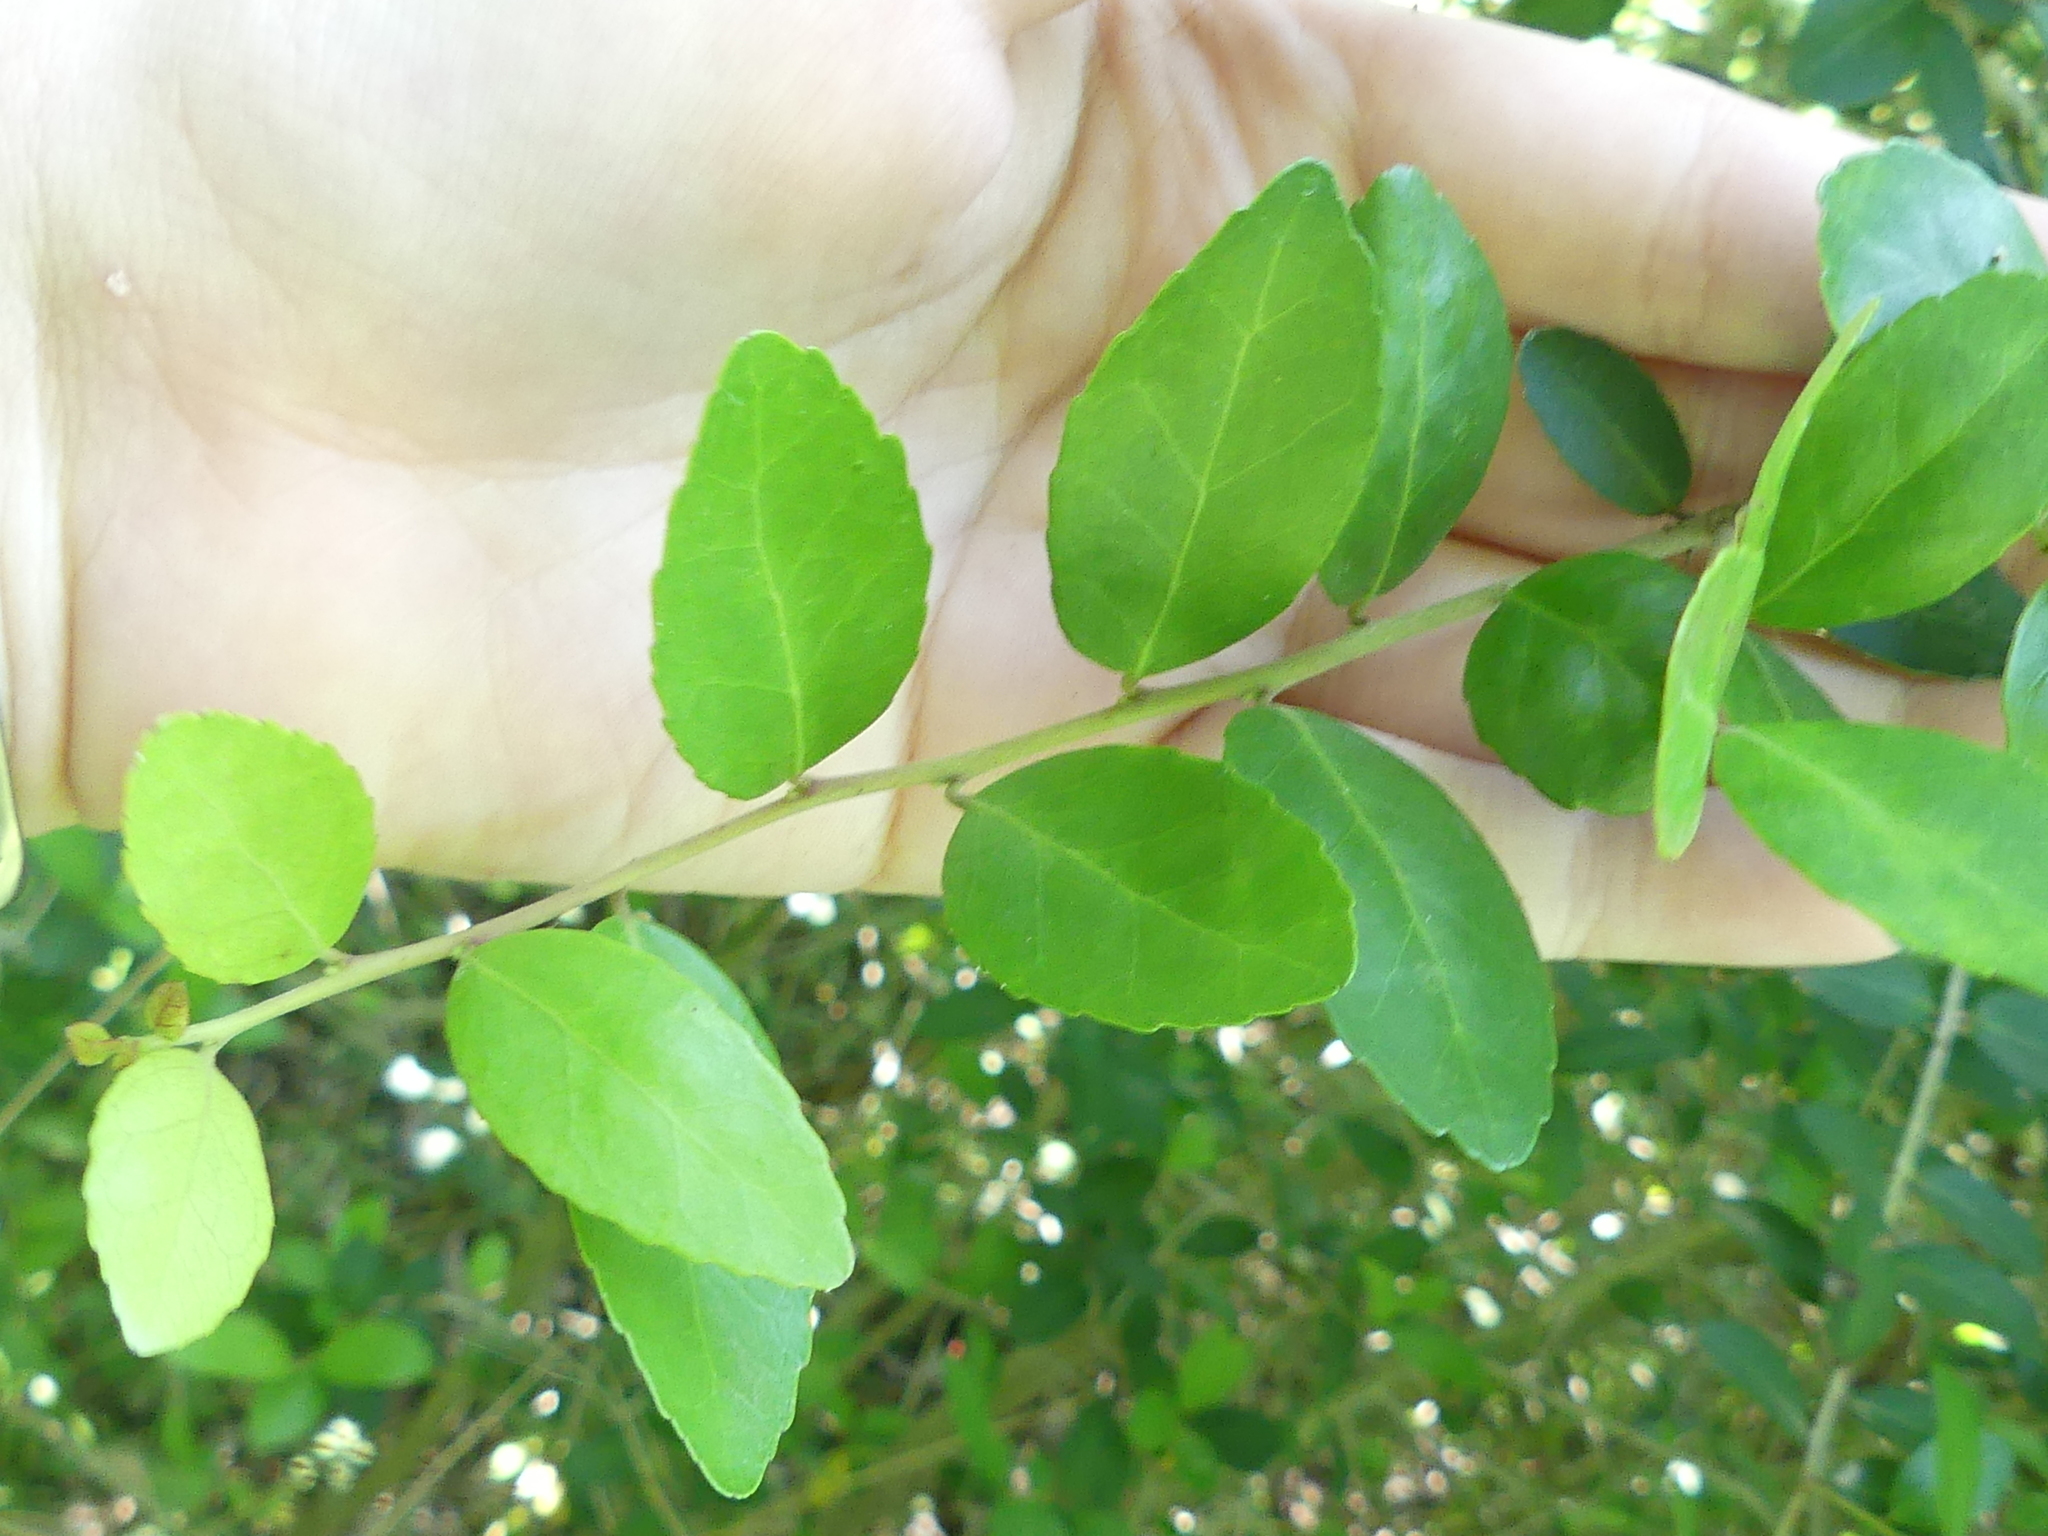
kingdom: Plantae
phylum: Tracheophyta
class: Magnoliopsida
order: Aquifoliales
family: Aquifoliaceae
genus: Ilex
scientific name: Ilex vomitoria
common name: Yaupon holly
